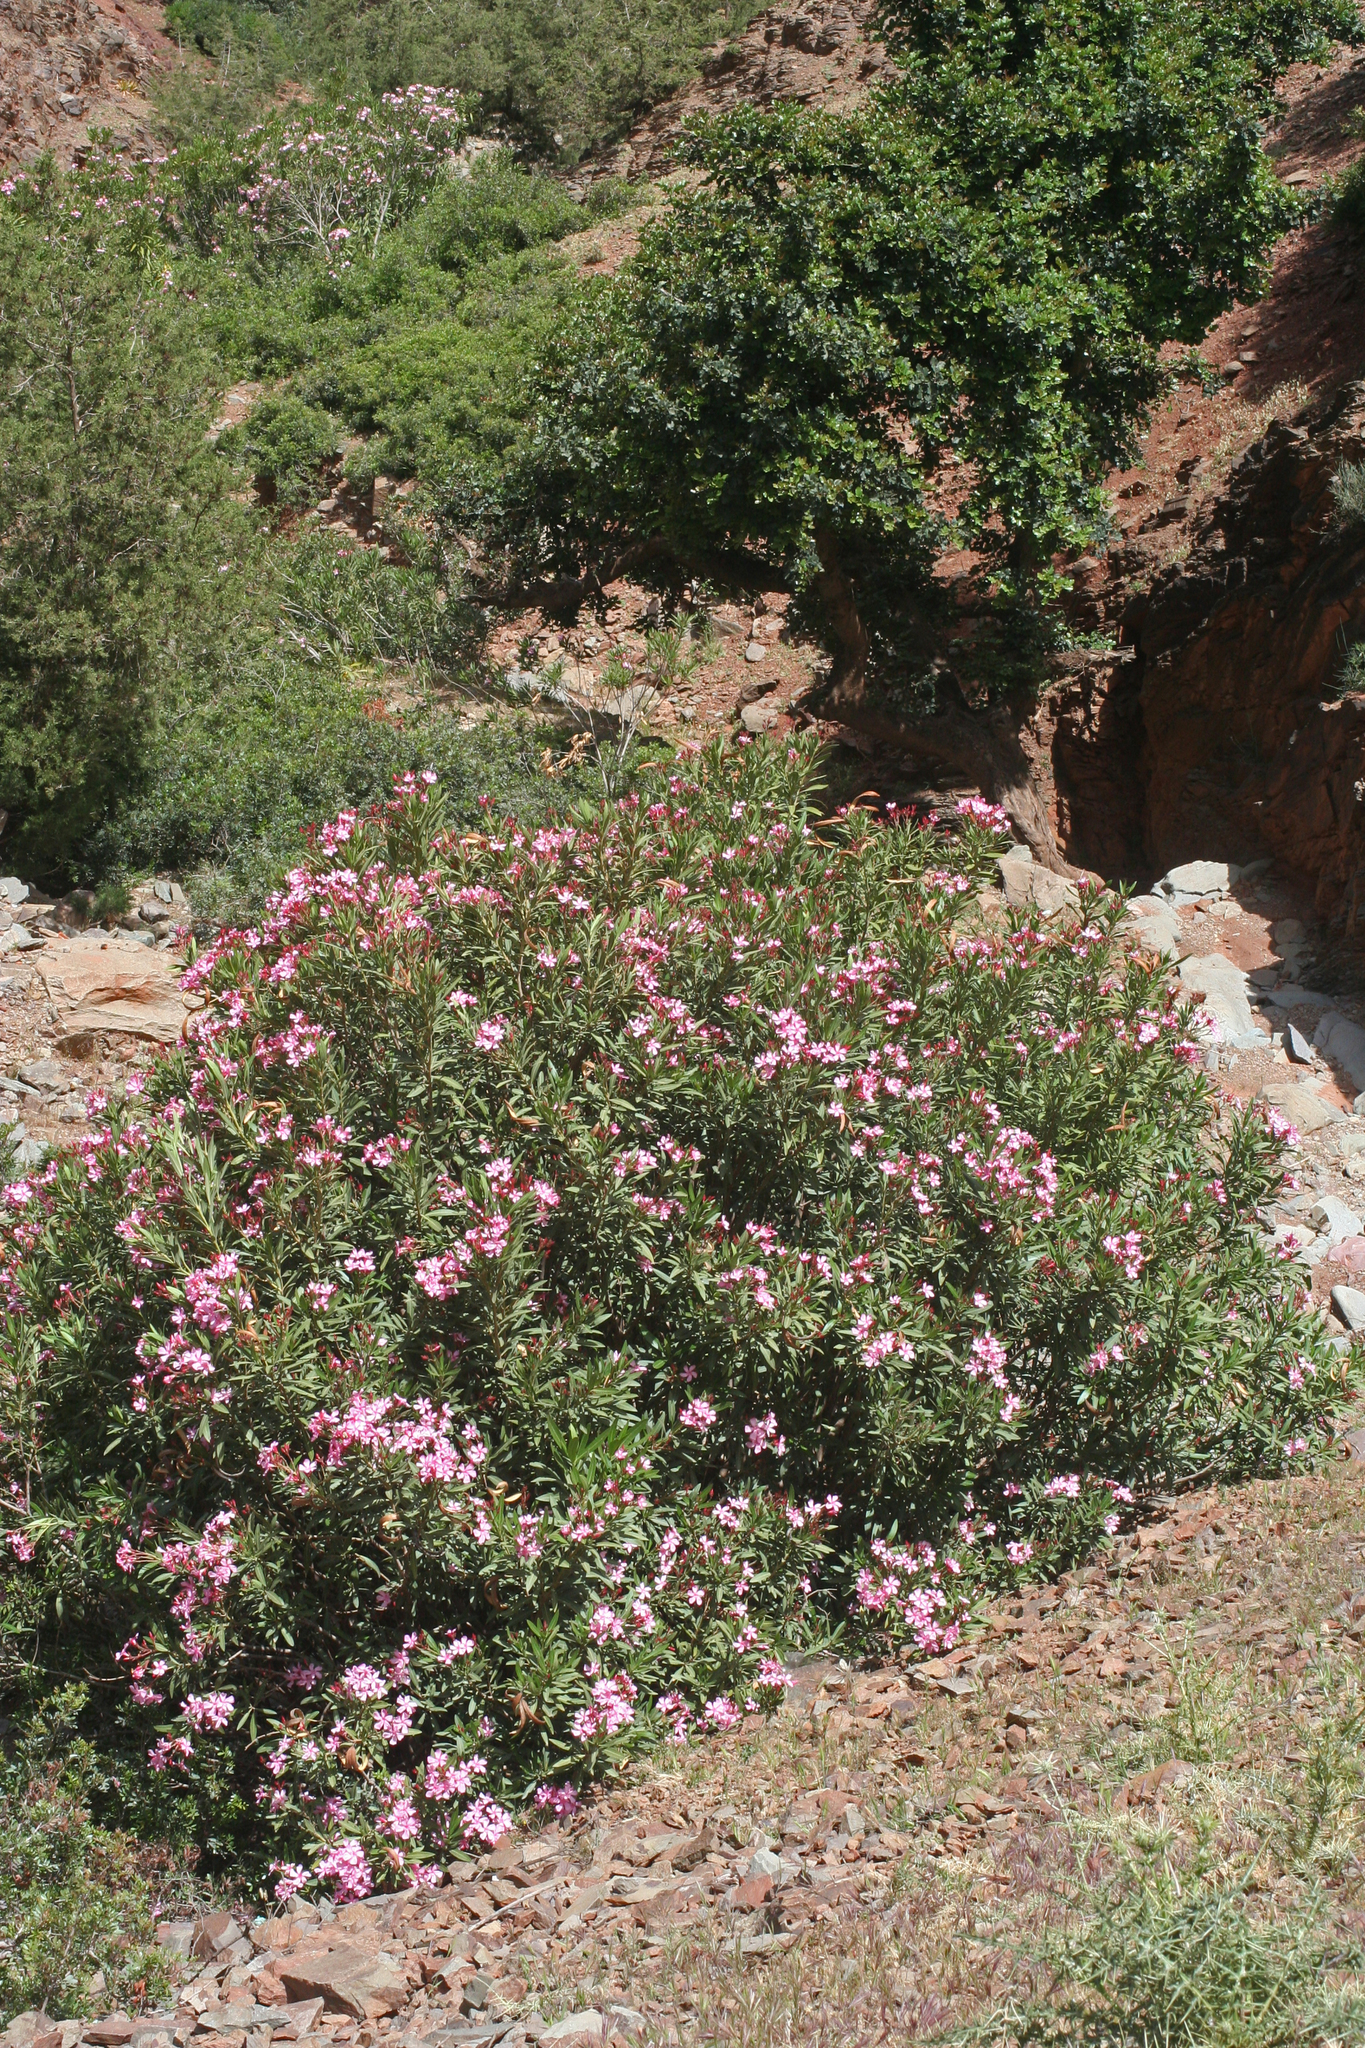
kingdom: Plantae
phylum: Tracheophyta
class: Magnoliopsida
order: Gentianales
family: Apocynaceae
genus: Nerium
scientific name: Nerium oleander
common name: Oleander
